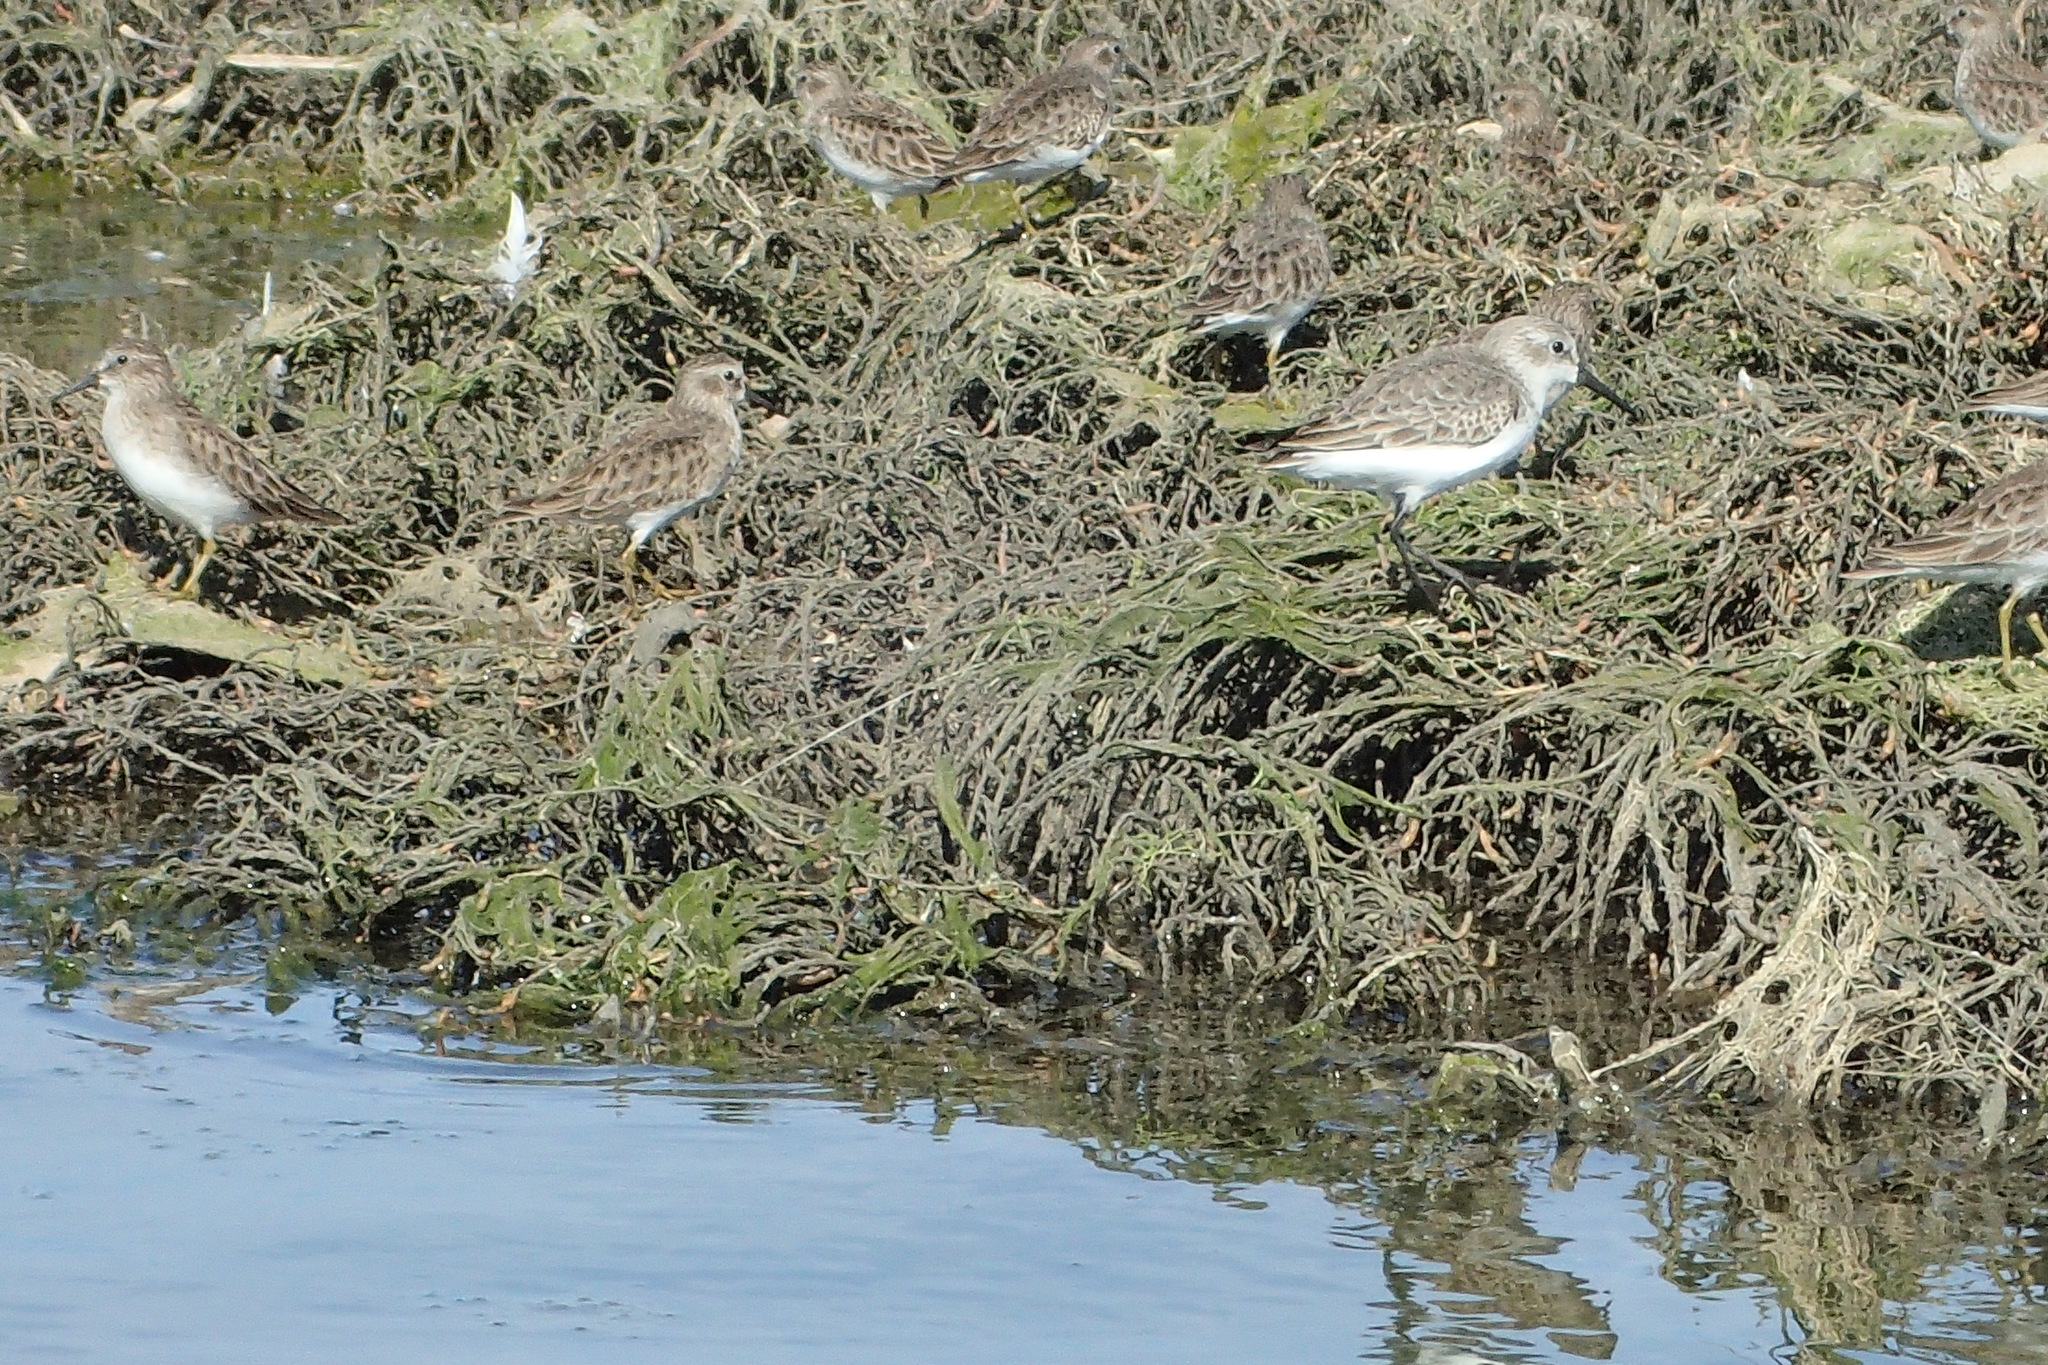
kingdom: Animalia
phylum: Chordata
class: Aves
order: Charadriiformes
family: Scolopacidae
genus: Calidris
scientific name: Calidris minutilla
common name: Least sandpiper
